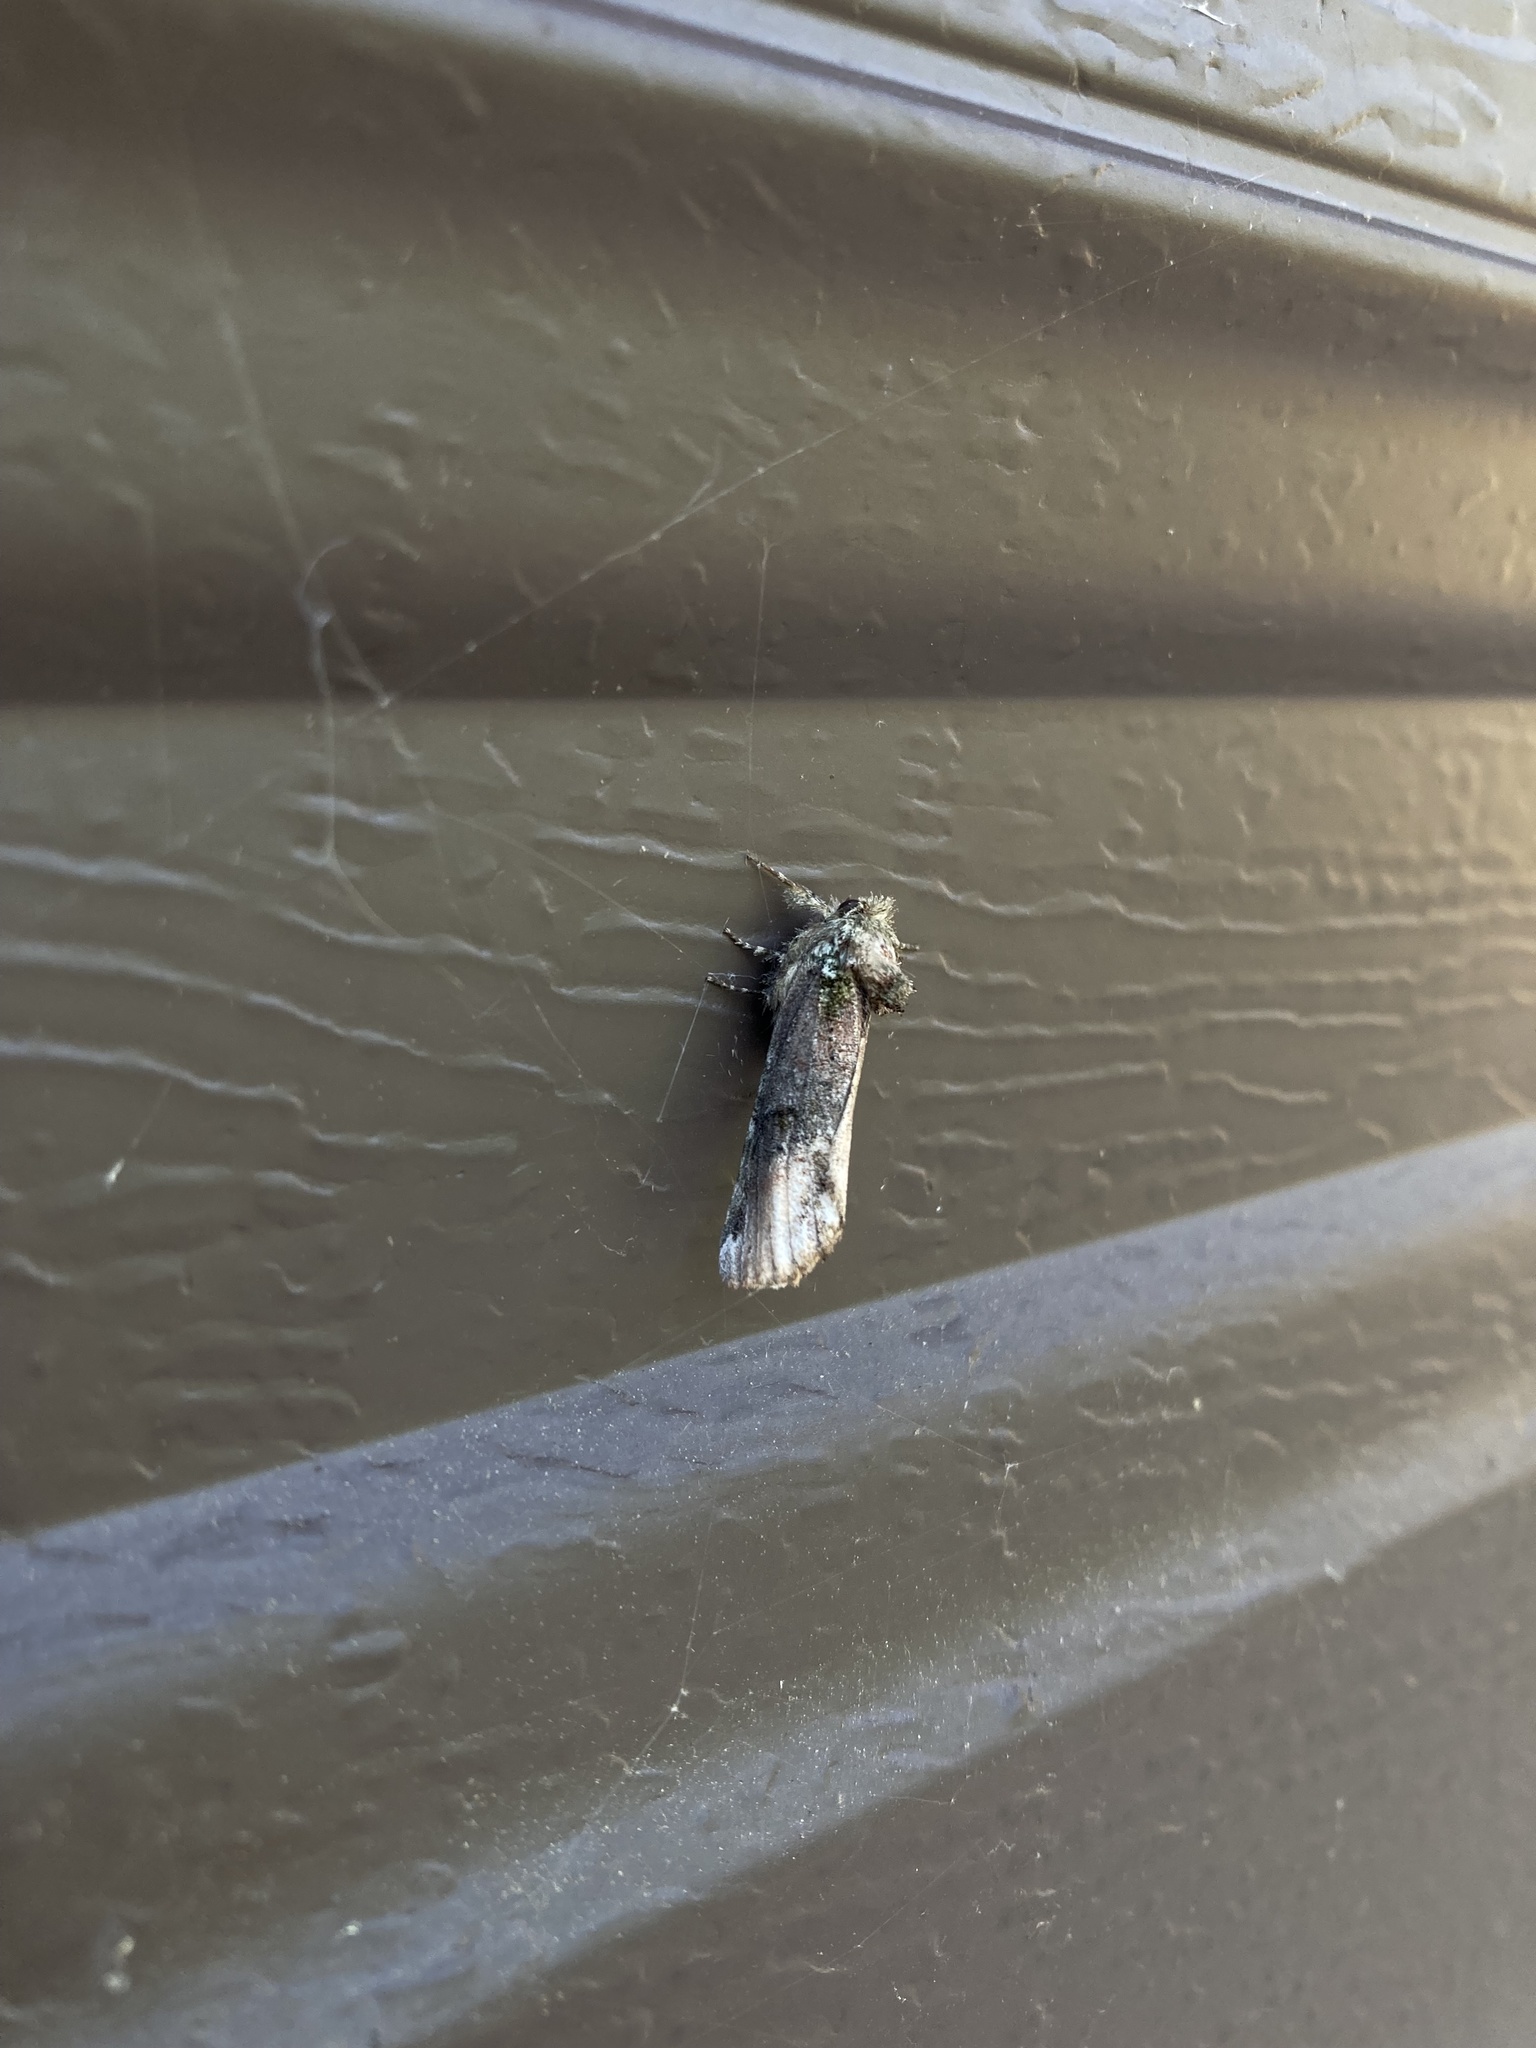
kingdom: Animalia
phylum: Arthropoda
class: Insecta
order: Lepidoptera
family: Notodontidae
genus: Schizura
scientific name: Schizura
